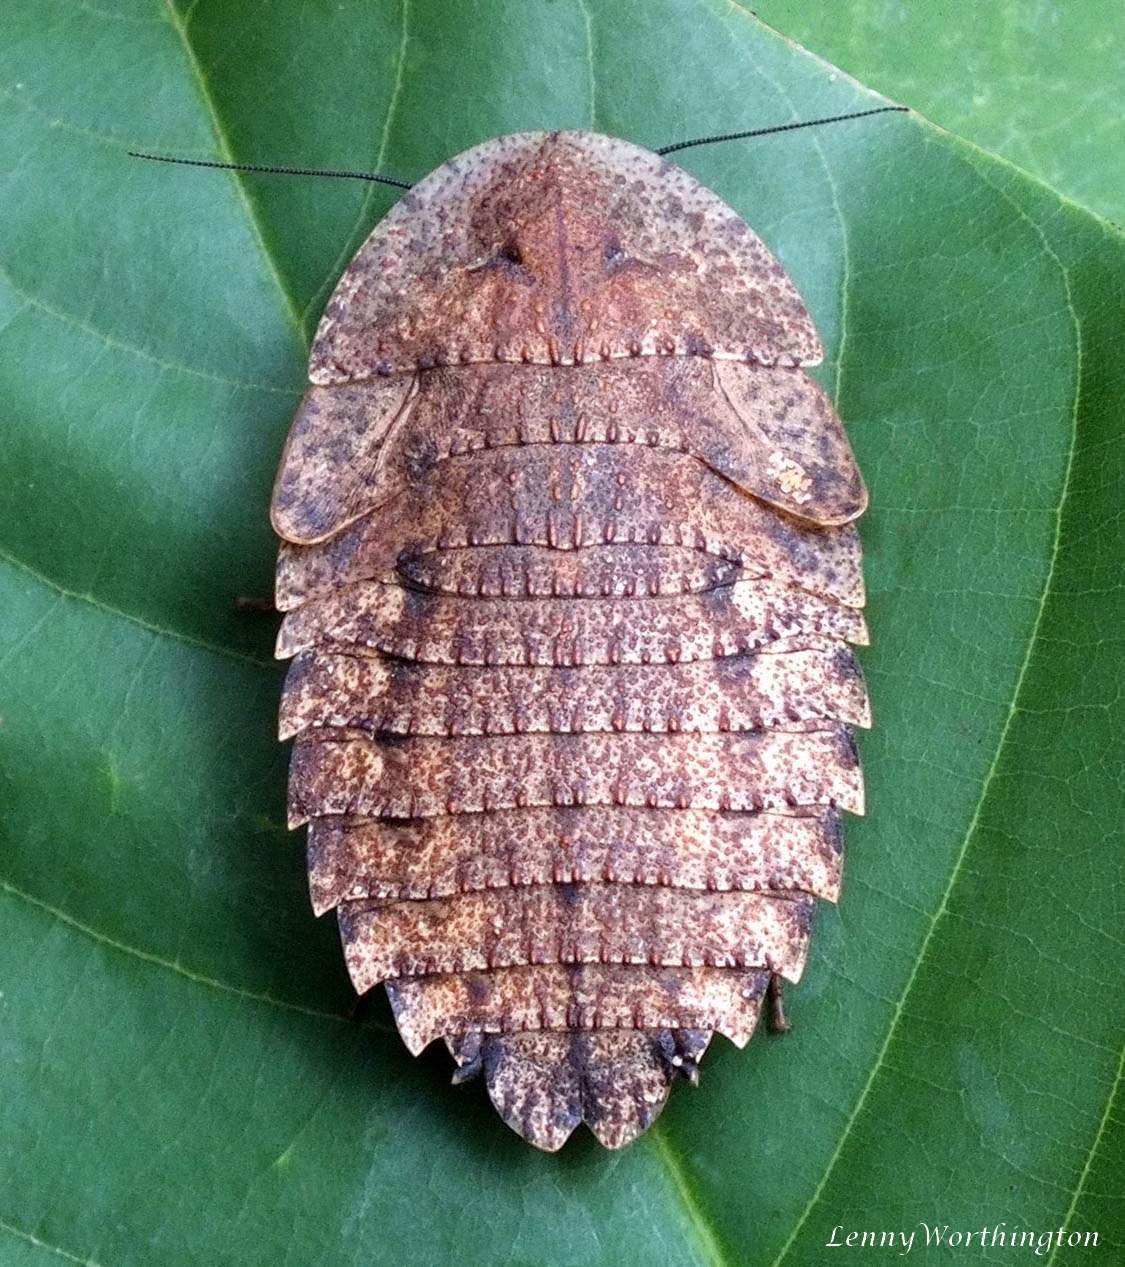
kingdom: Animalia
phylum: Arthropoda
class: Insecta
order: Blattodea
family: Blaberidae
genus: Rhicnoda
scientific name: Rhicnoda desidiosa
